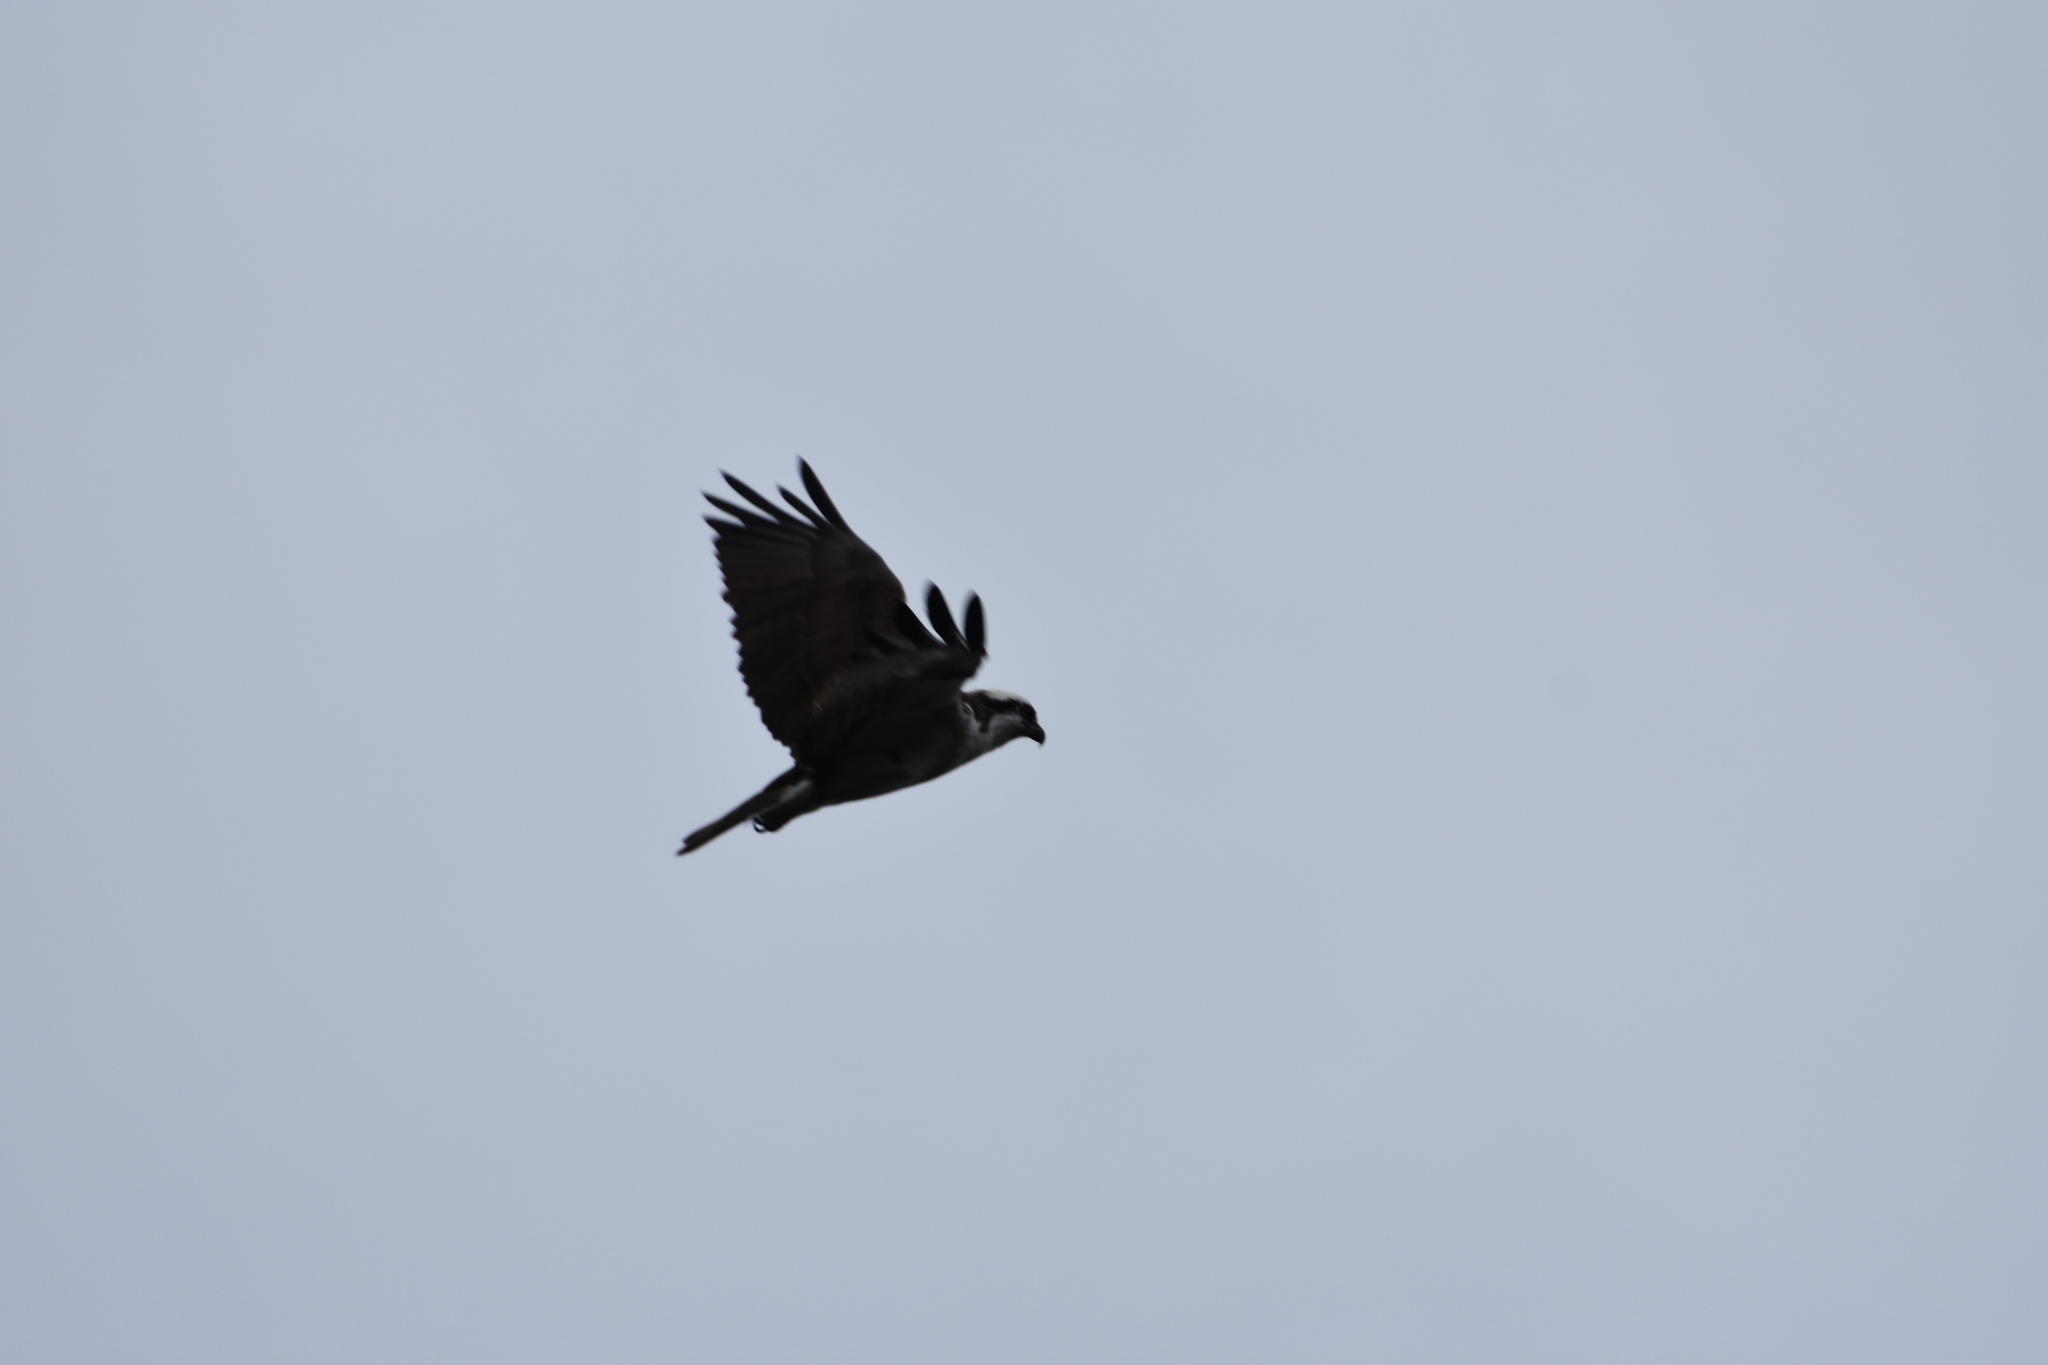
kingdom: Animalia
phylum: Chordata
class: Aves
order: Accipitriformes
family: Pandionidae
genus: Pandion
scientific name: Pandion haliaetus
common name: Osprey
